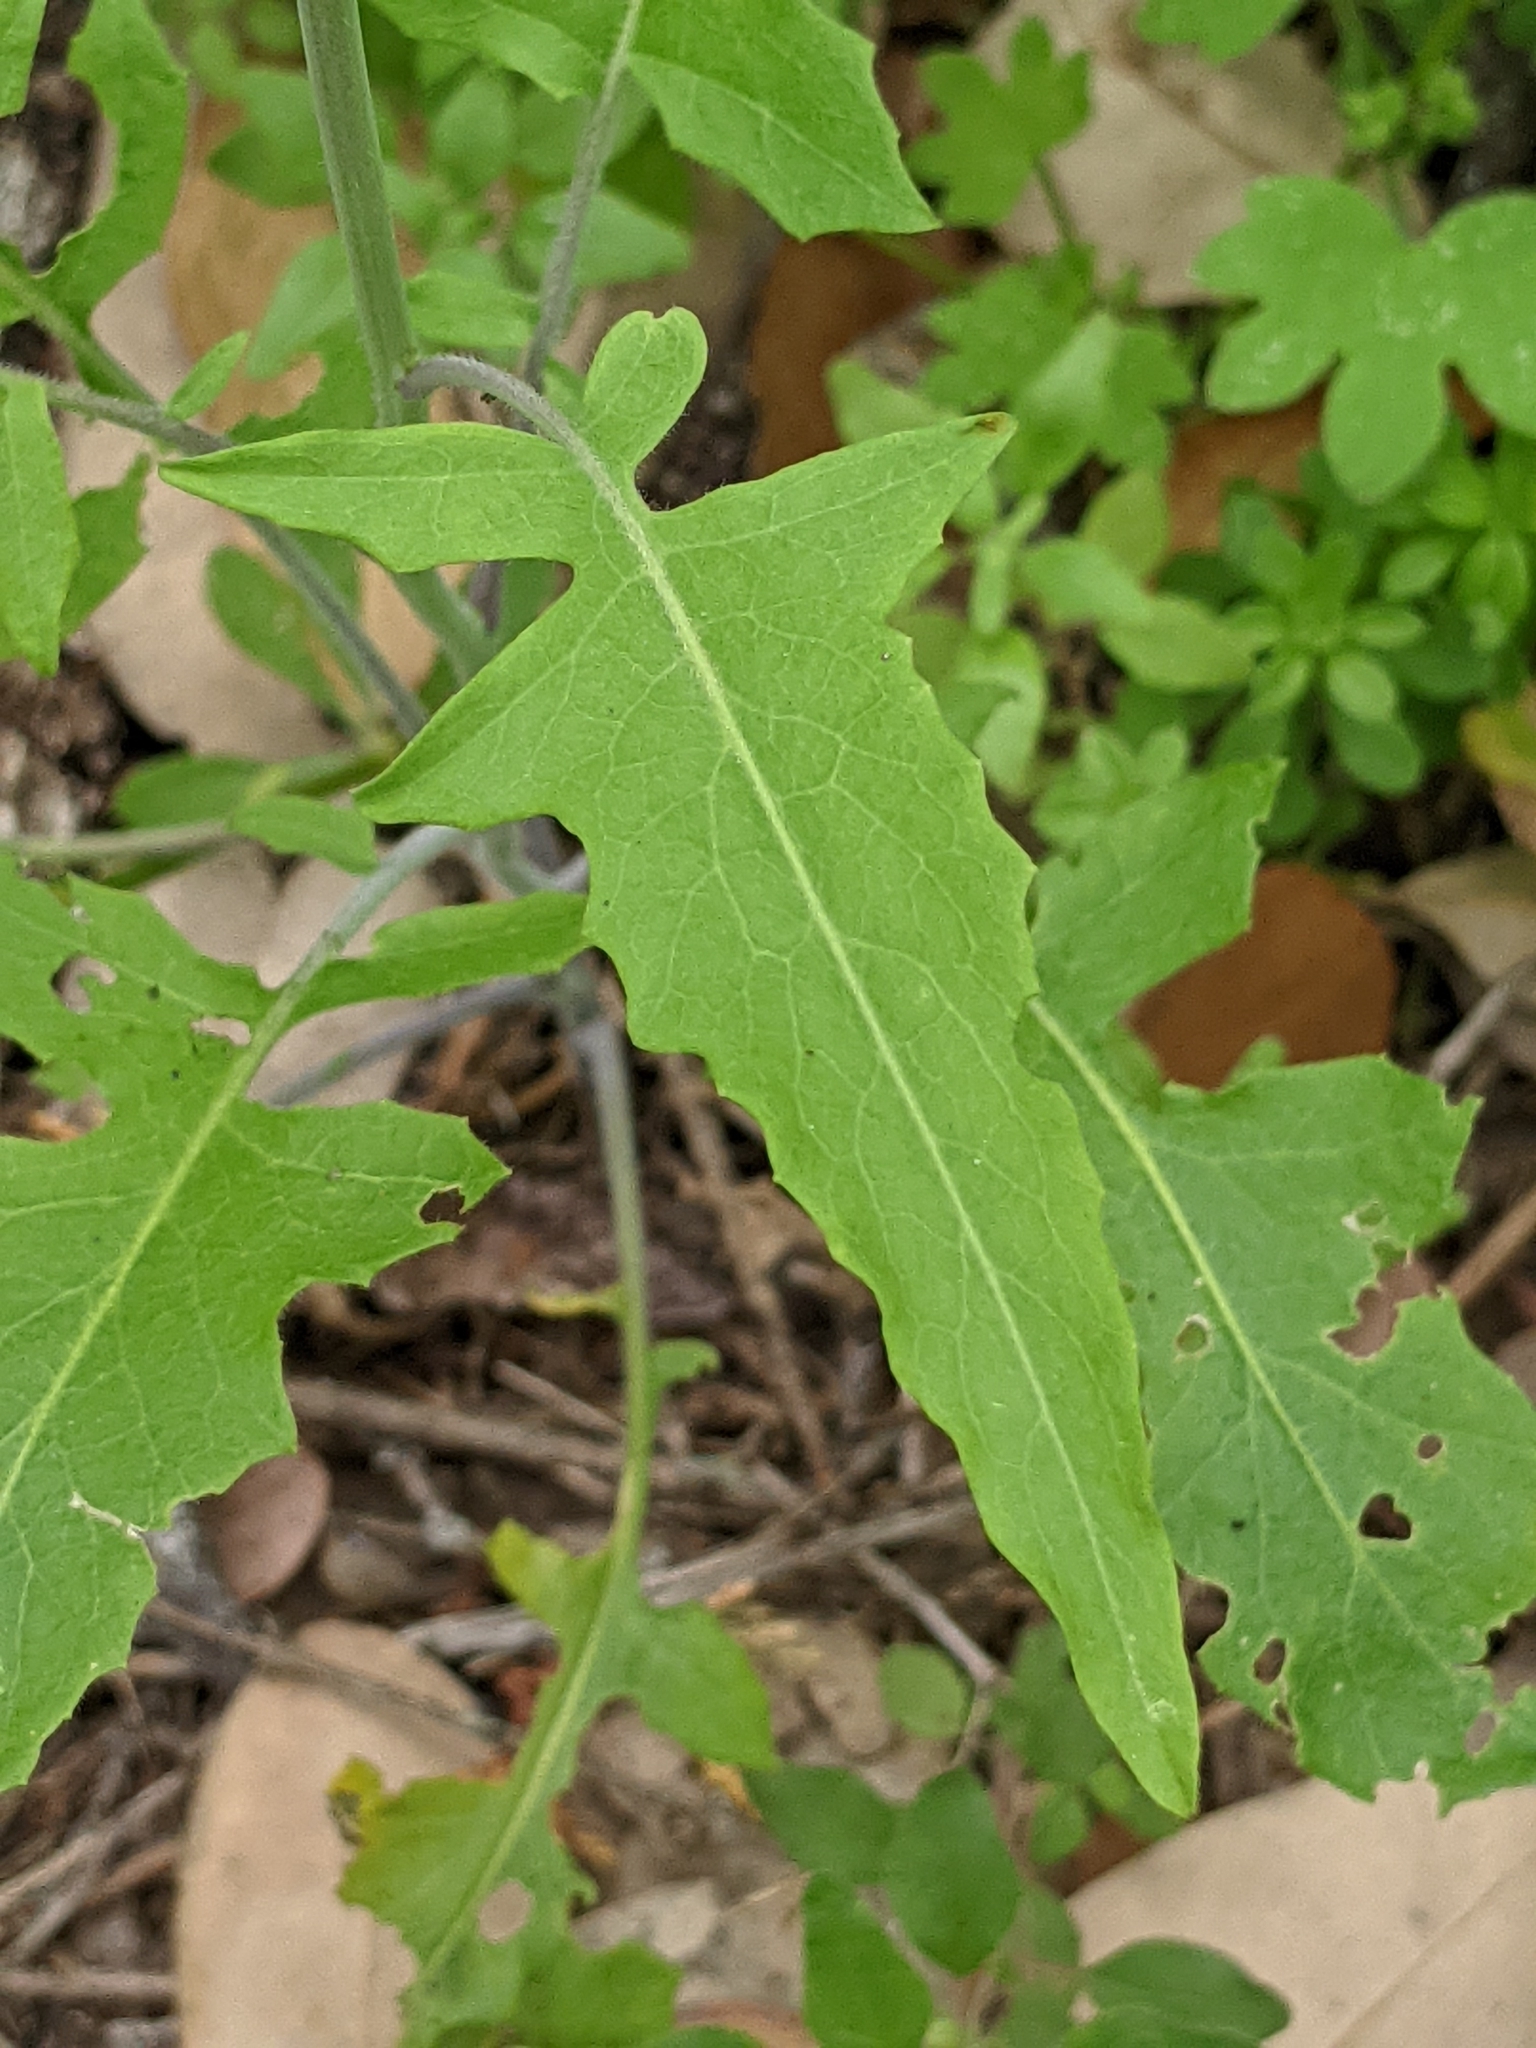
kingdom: Plantae
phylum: Tracheophyta
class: Magnoliopsida
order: Brassicales
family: Brassicaceae
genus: Streptanthus
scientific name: Streptanthus petiolaris
